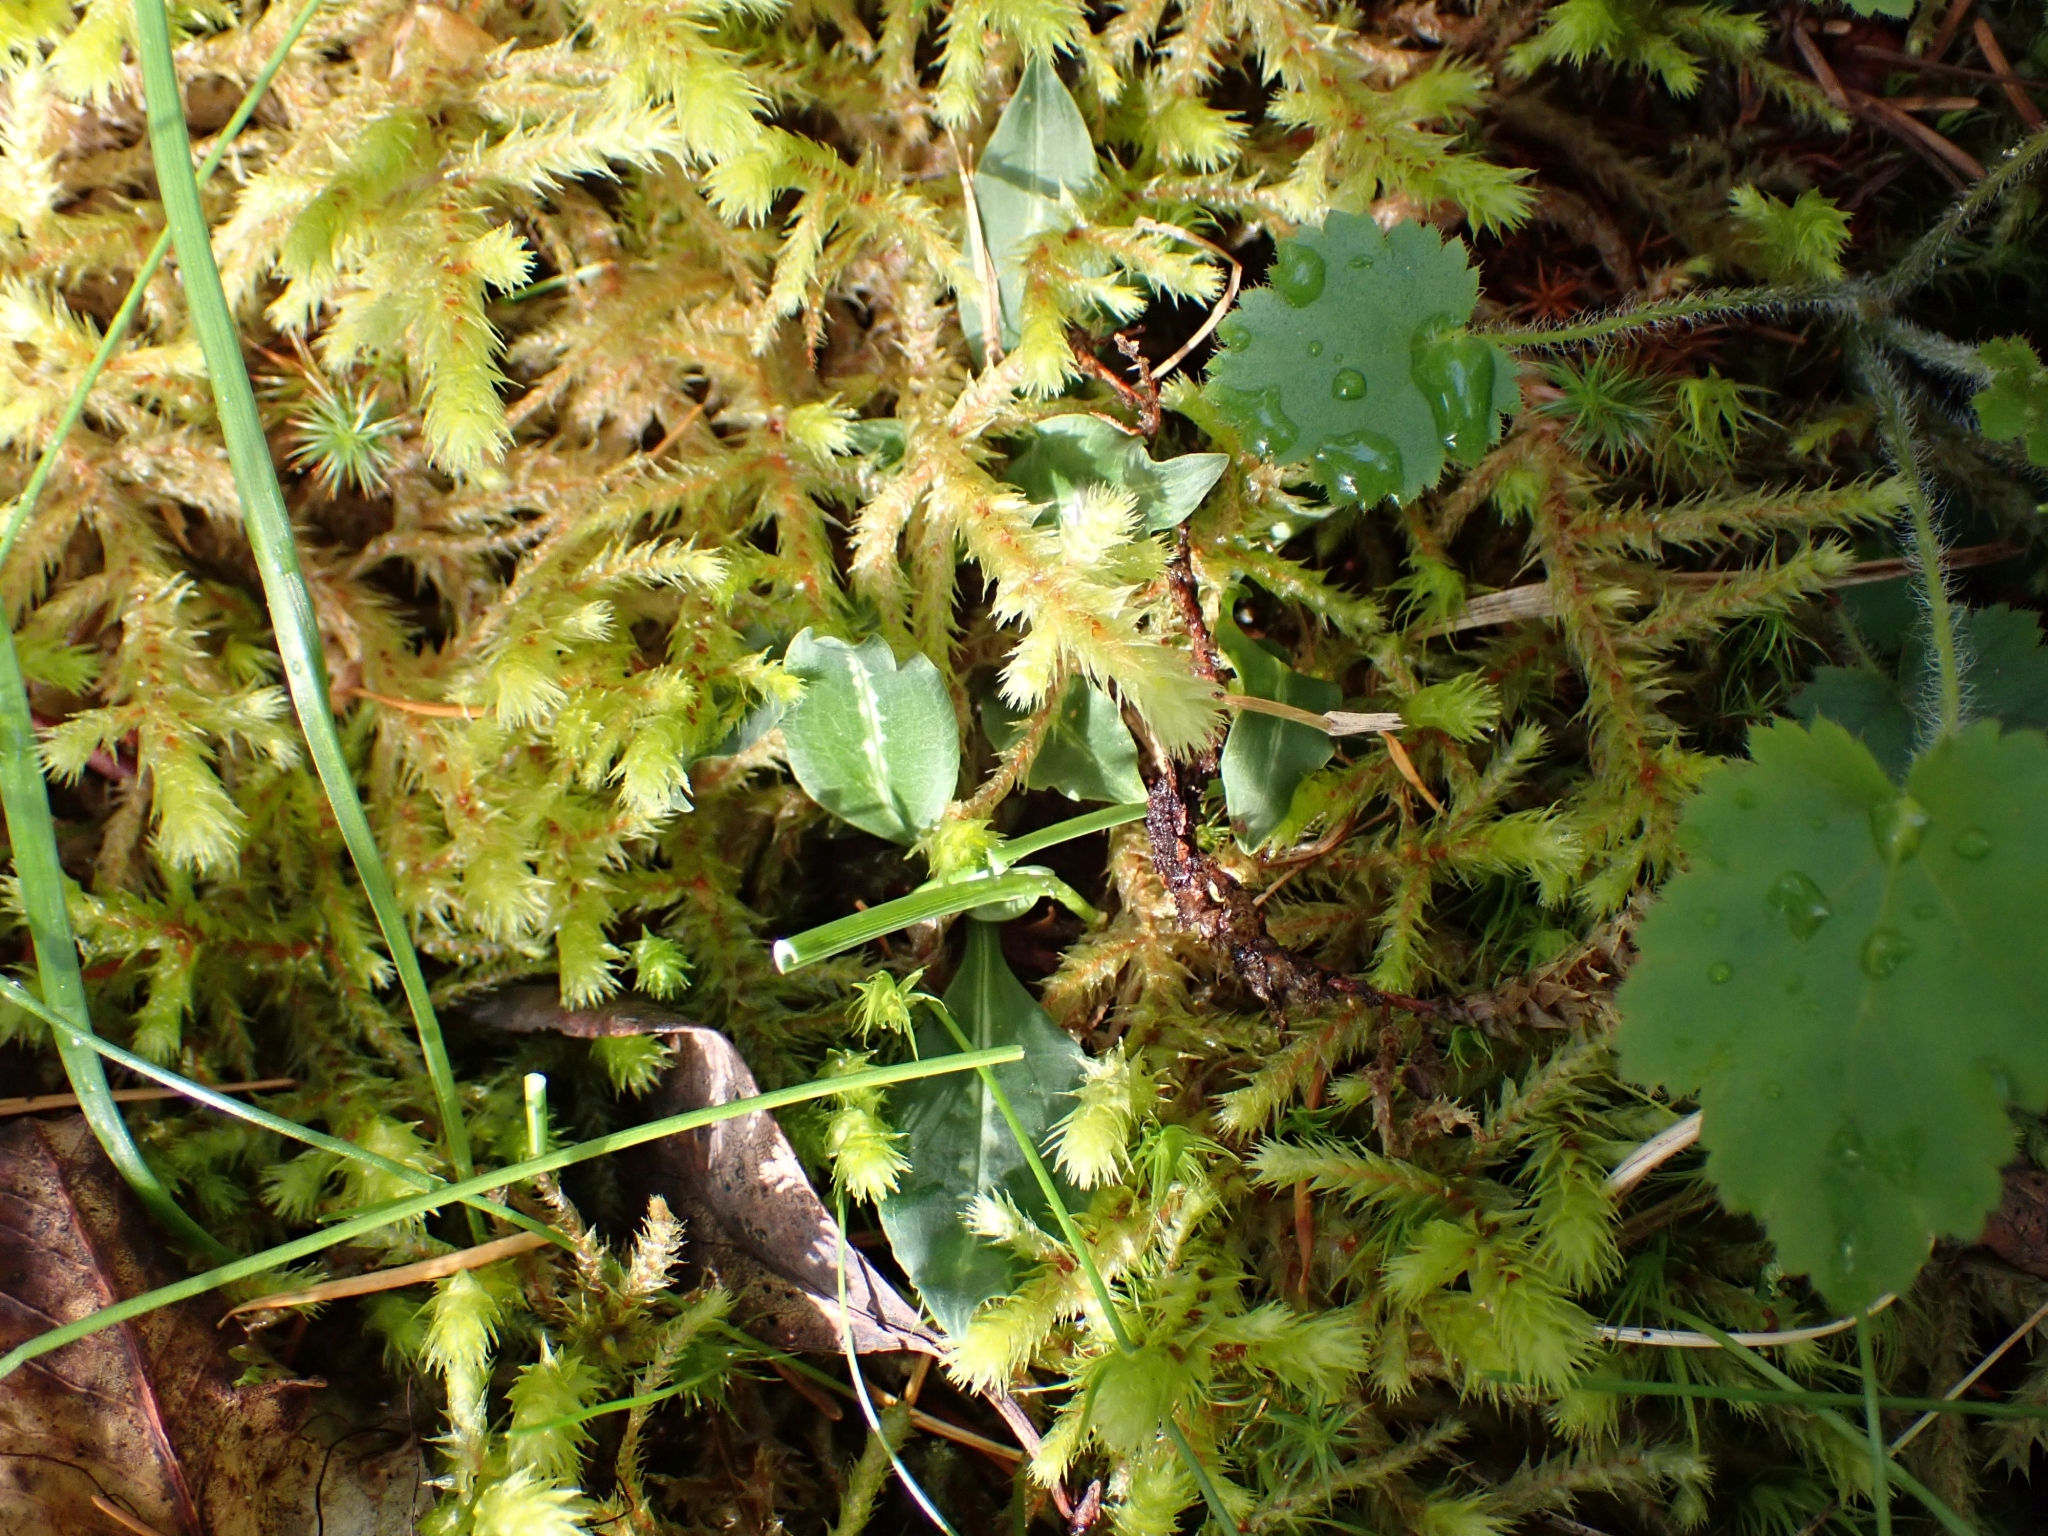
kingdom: Plantae
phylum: Tracheophyta
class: Liliopsida
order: Asparagales
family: Orchidaceae
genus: Goodyera
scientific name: Goodyera oblongifolia
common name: Giant rattlesnake-plantain
